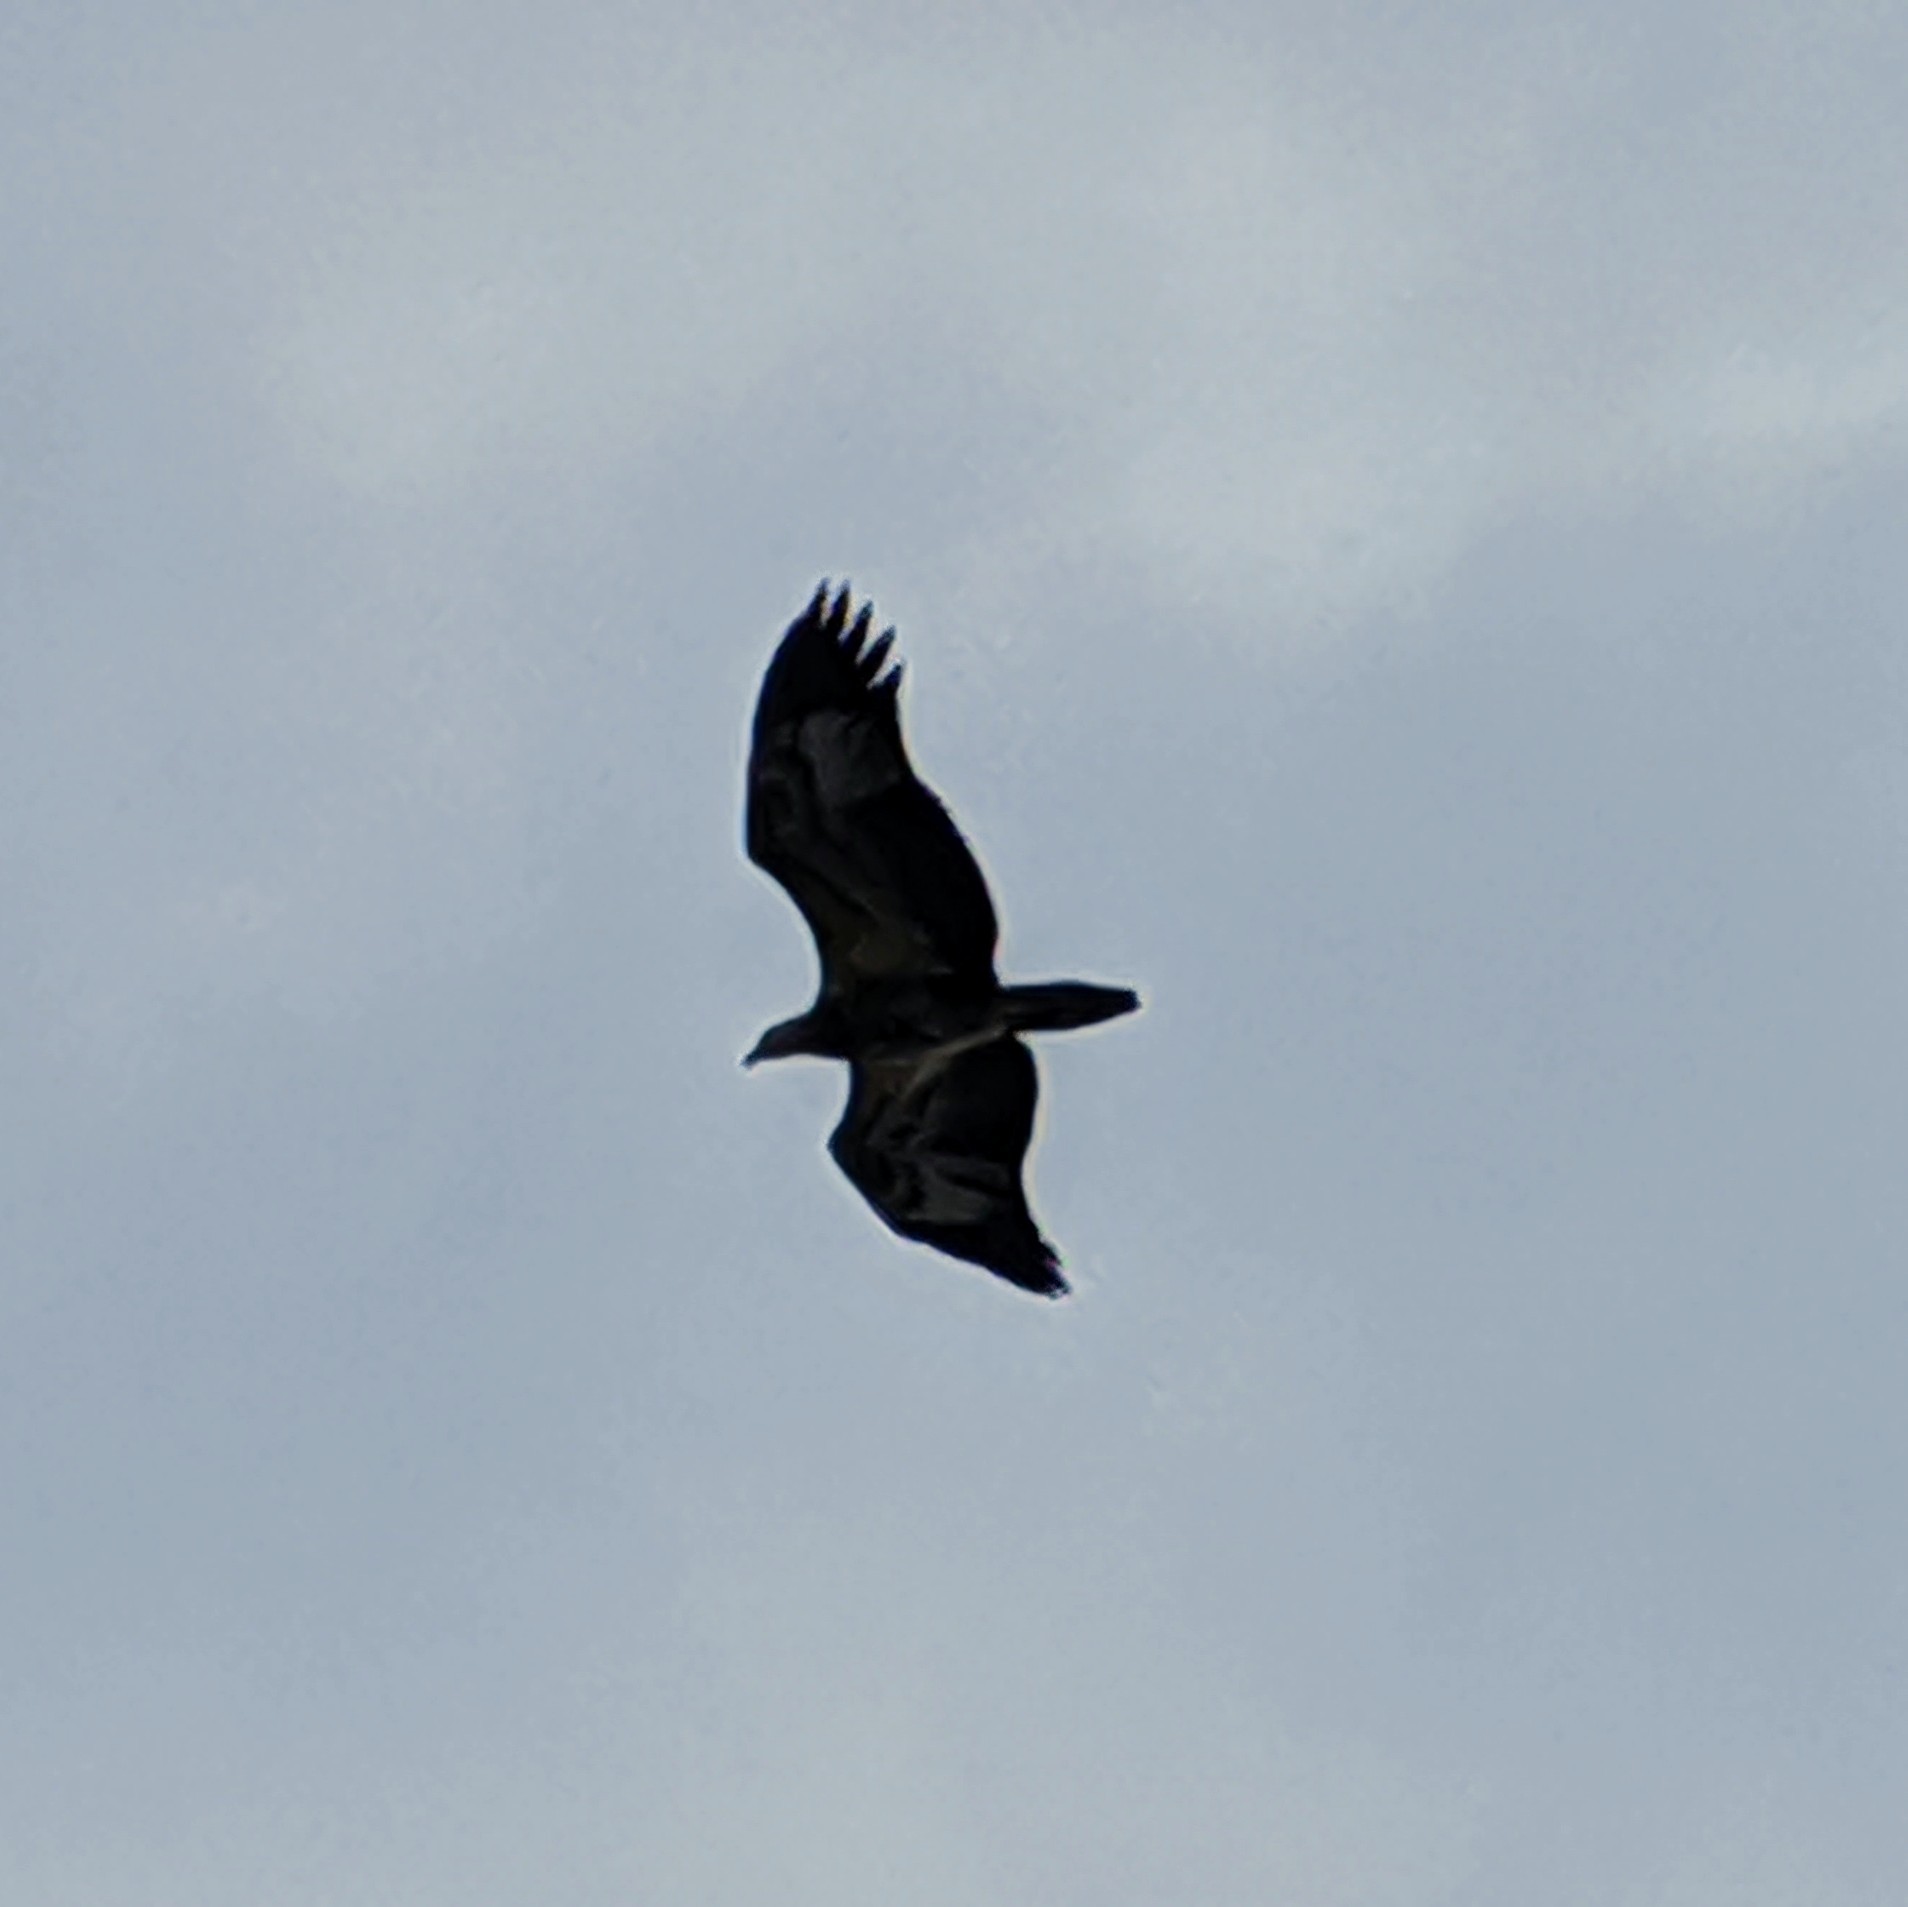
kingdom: Animalia
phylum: Chordata
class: Aves
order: Accipitriformes
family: Accipitridae
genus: Haliaeetus
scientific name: Haliaeetus leucogaster
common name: White-bellied sea eagle
